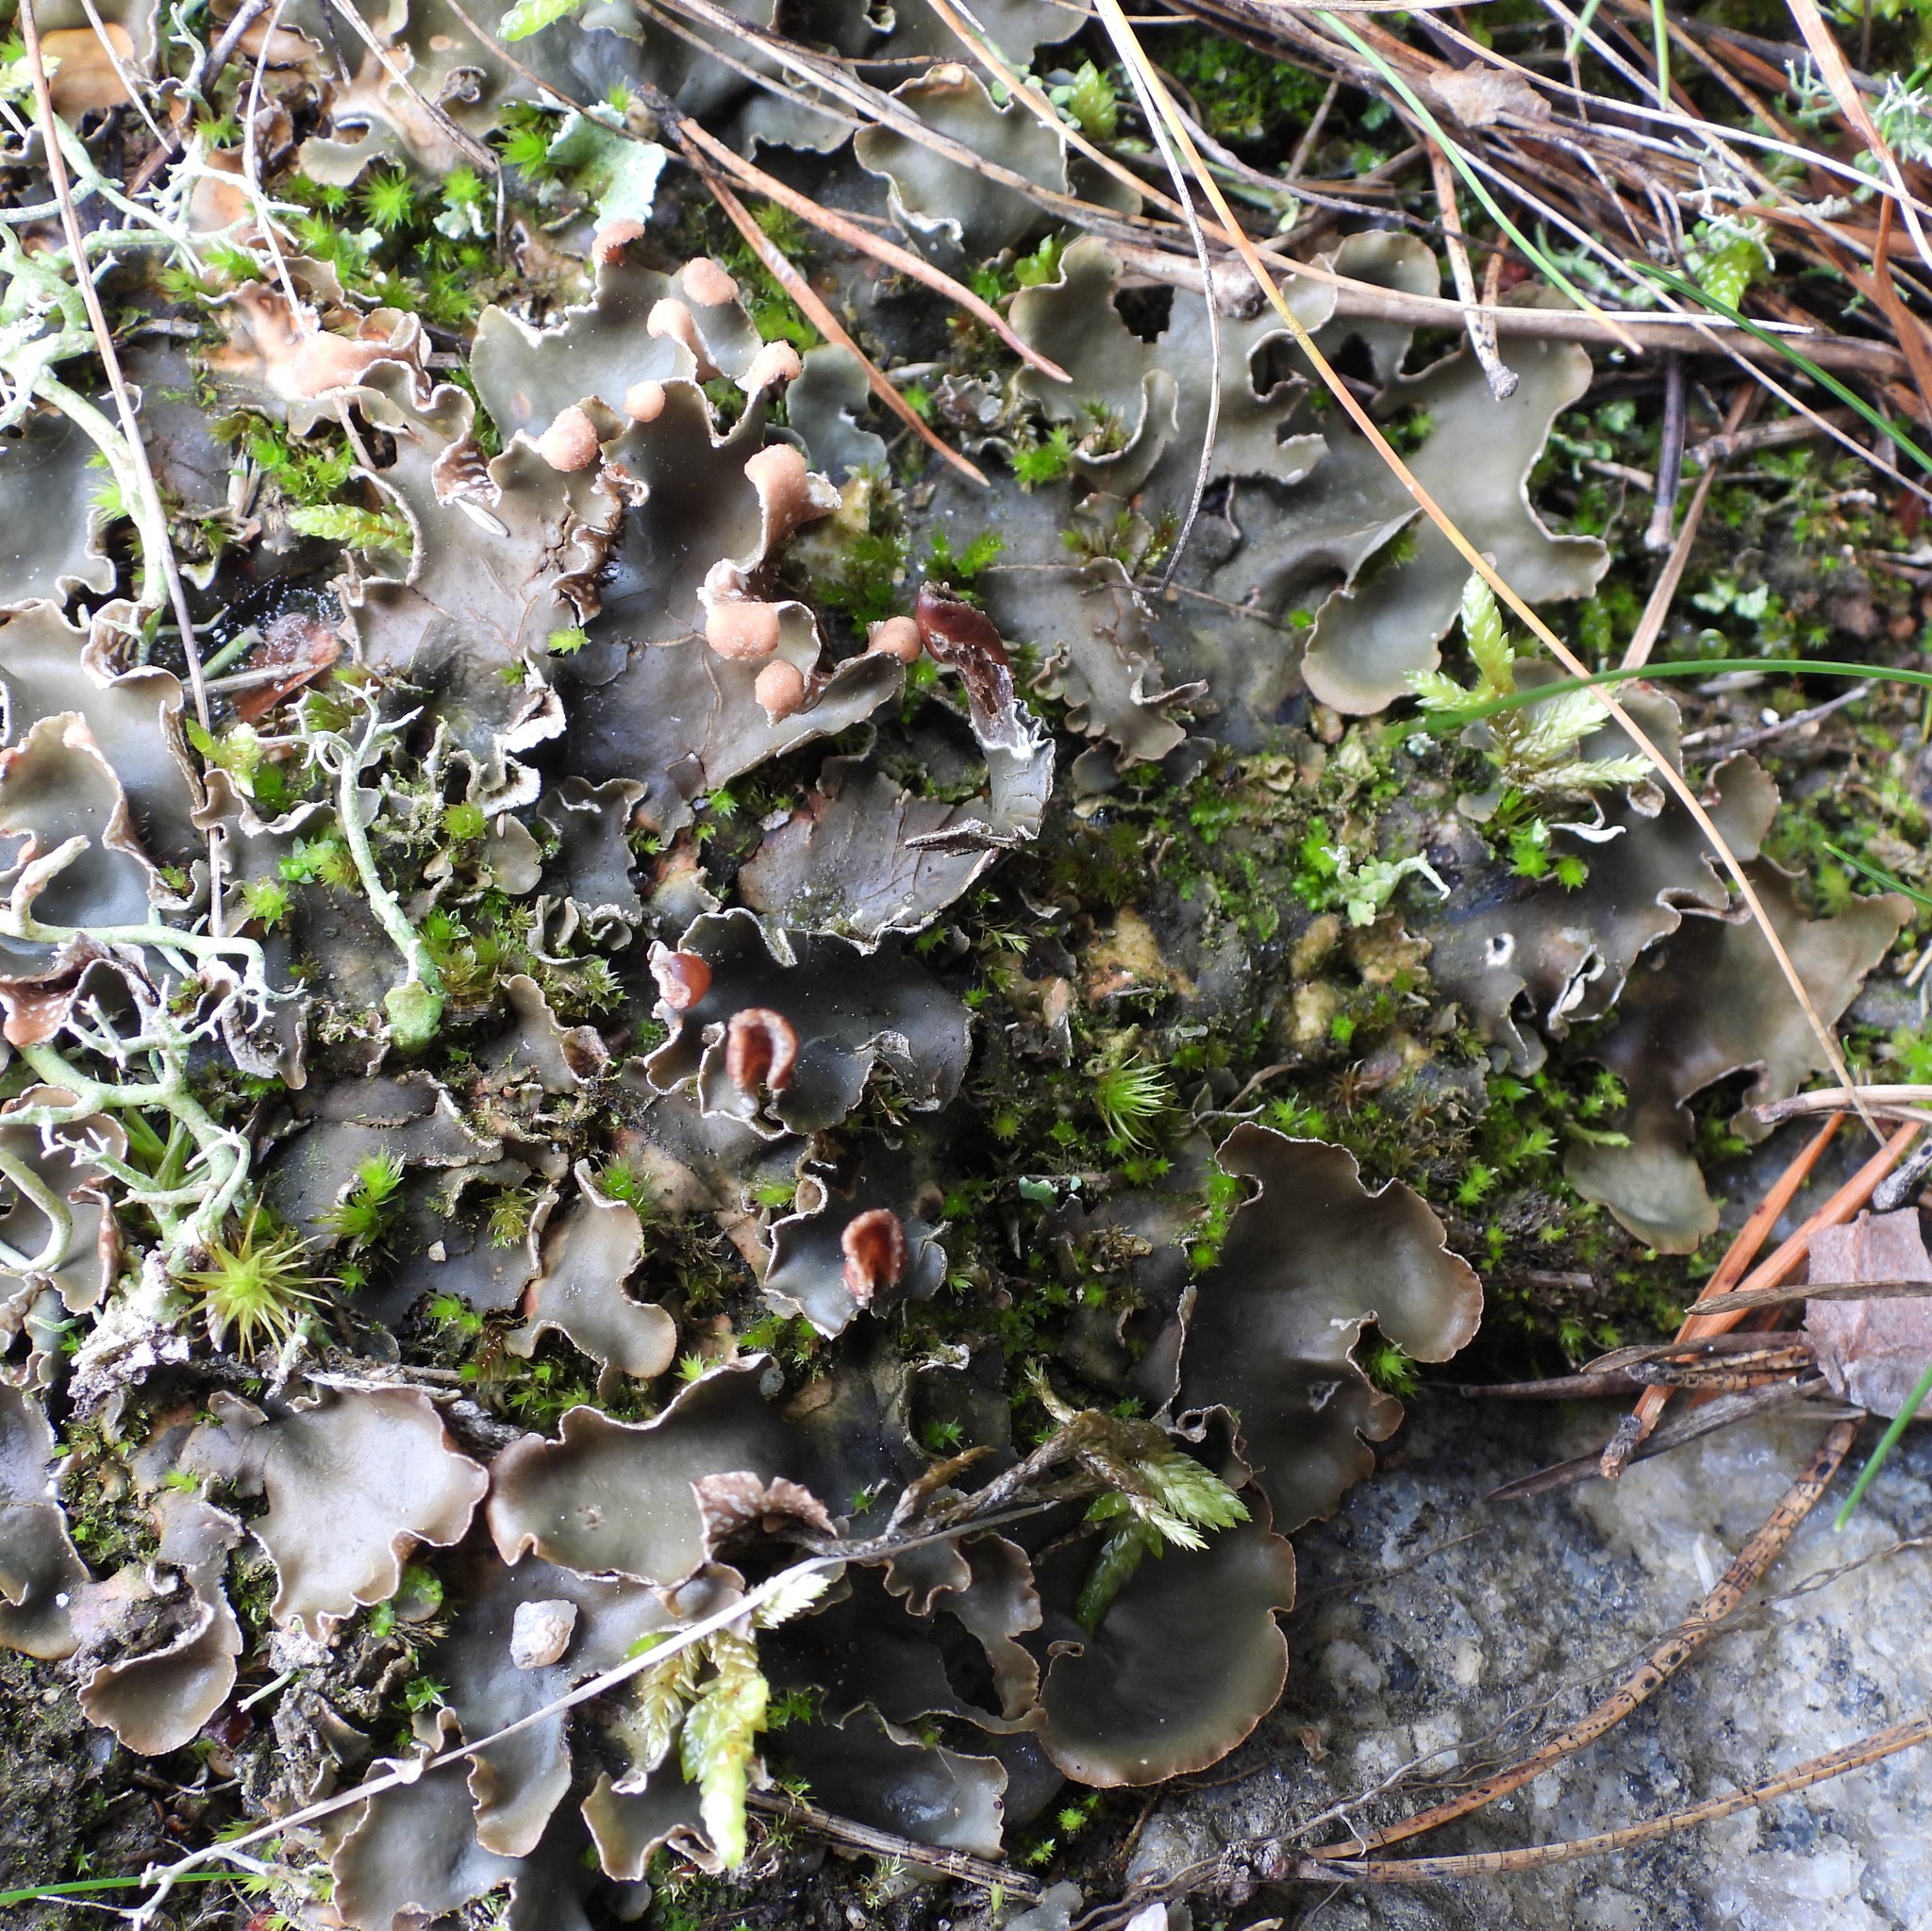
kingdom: Fungi
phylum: Ascomycota
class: Lecanoromycetes
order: Peltigerales
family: Peltigeraceae
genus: Peltigera
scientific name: Peltigera polydactylon
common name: Many-fruited pelt lichen
